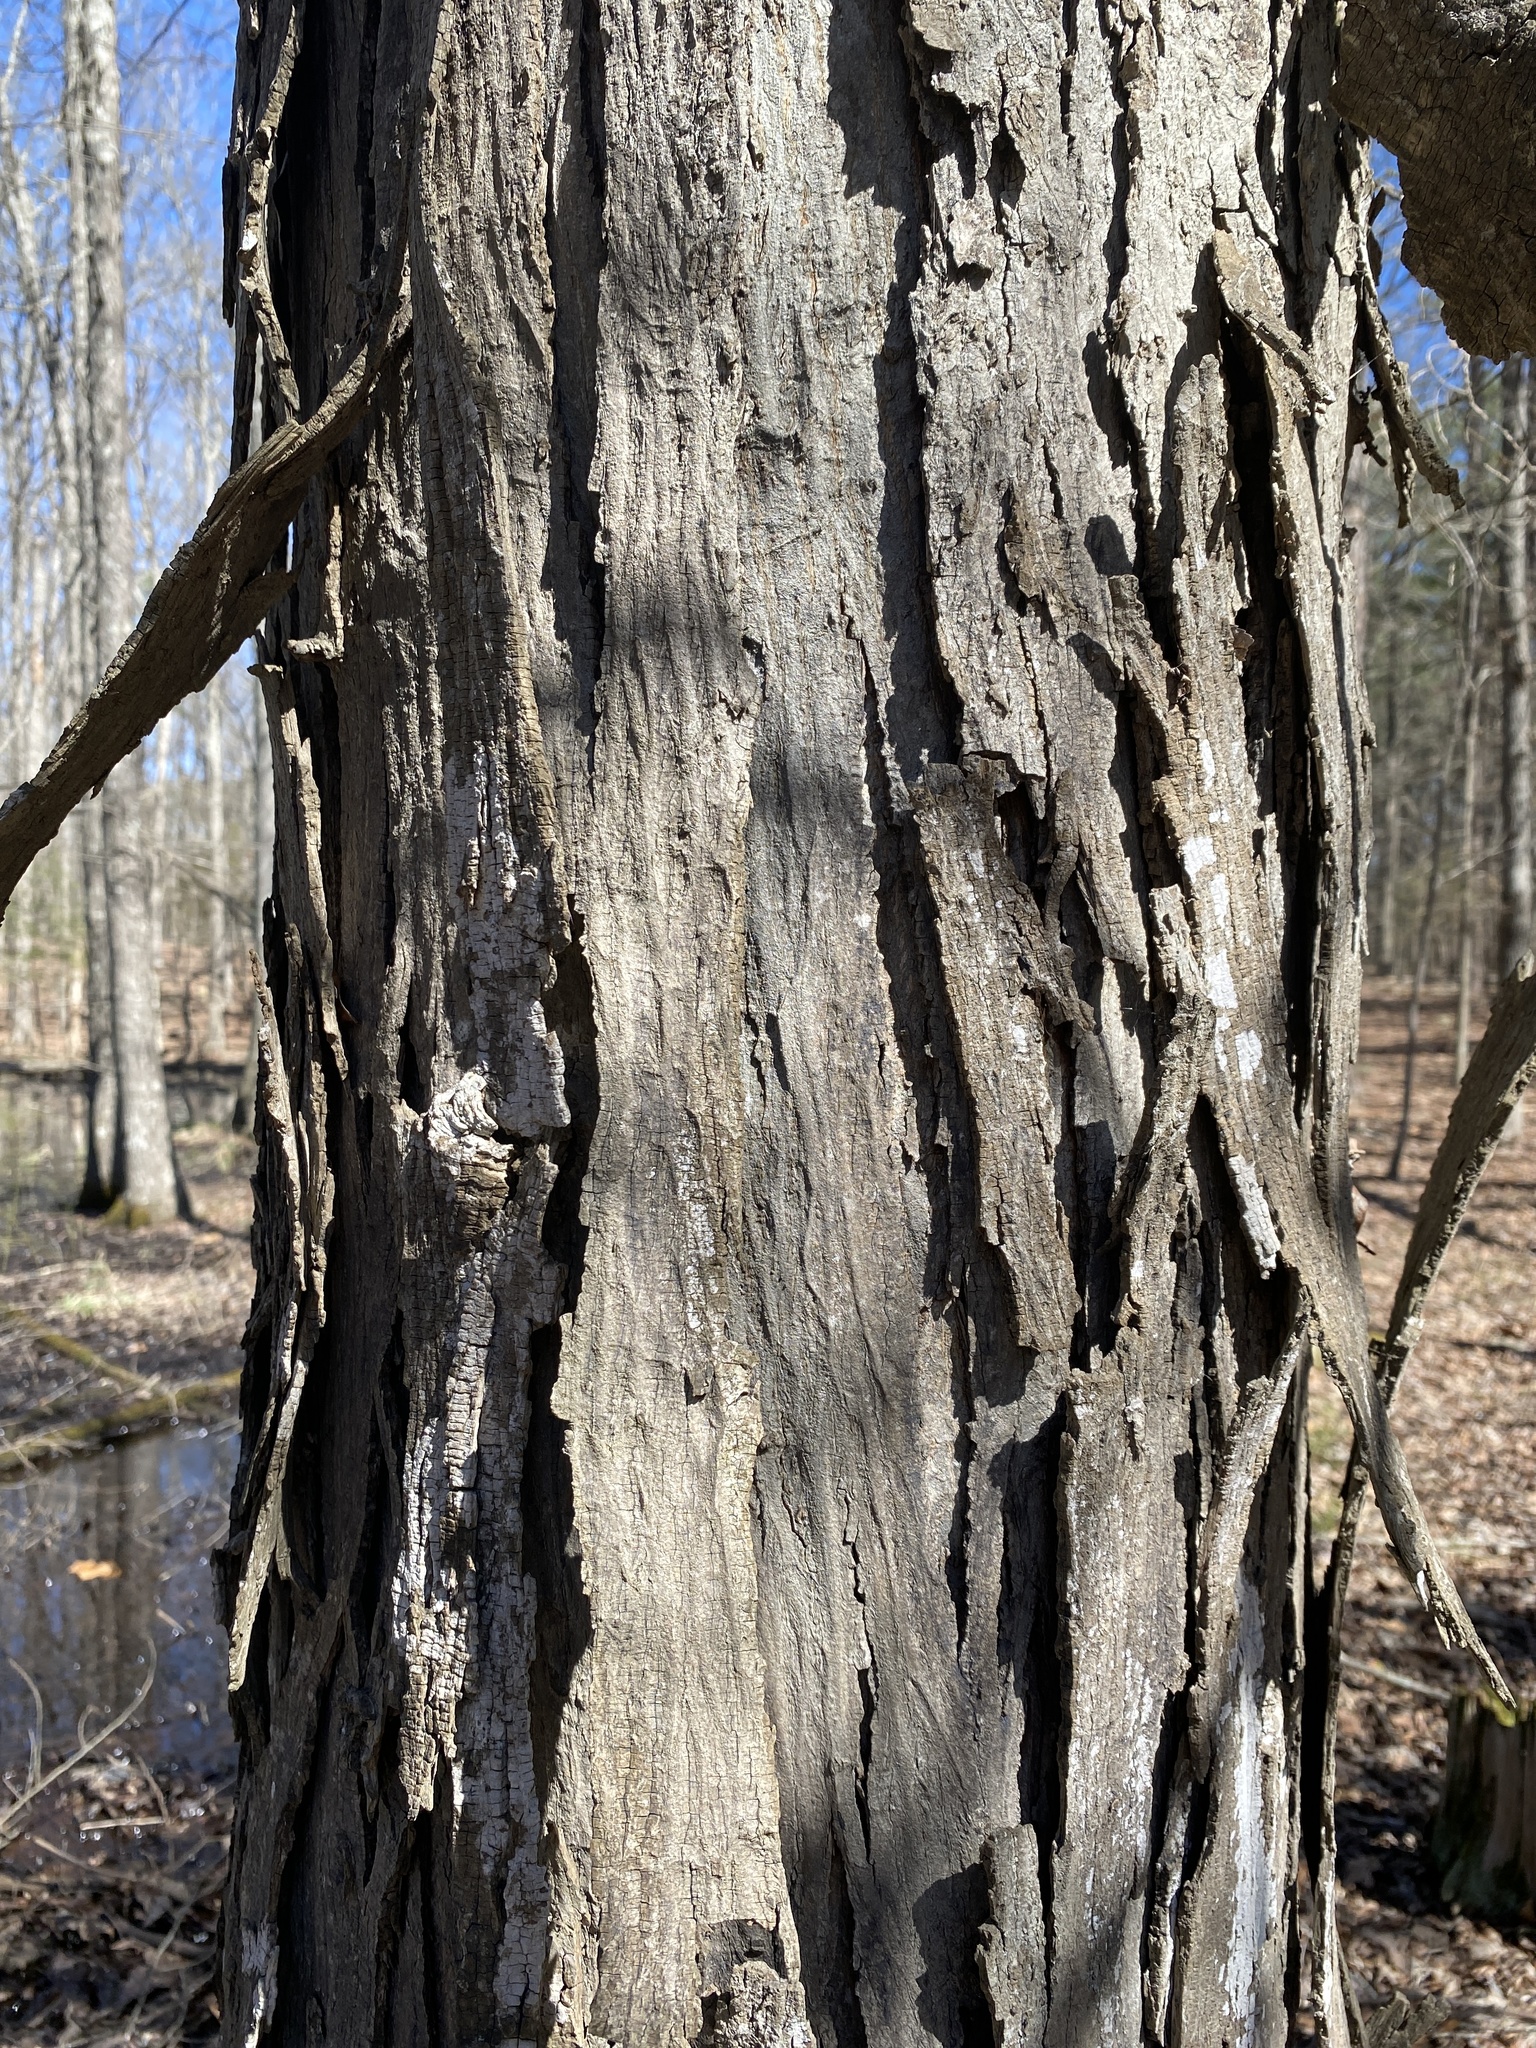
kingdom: Plantae
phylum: Tracheophyta
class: Magnoliopsida
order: Fagales
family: Juglandaceae
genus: Carya
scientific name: Carya carolinae-septentrionalis
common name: Carolina hickory
